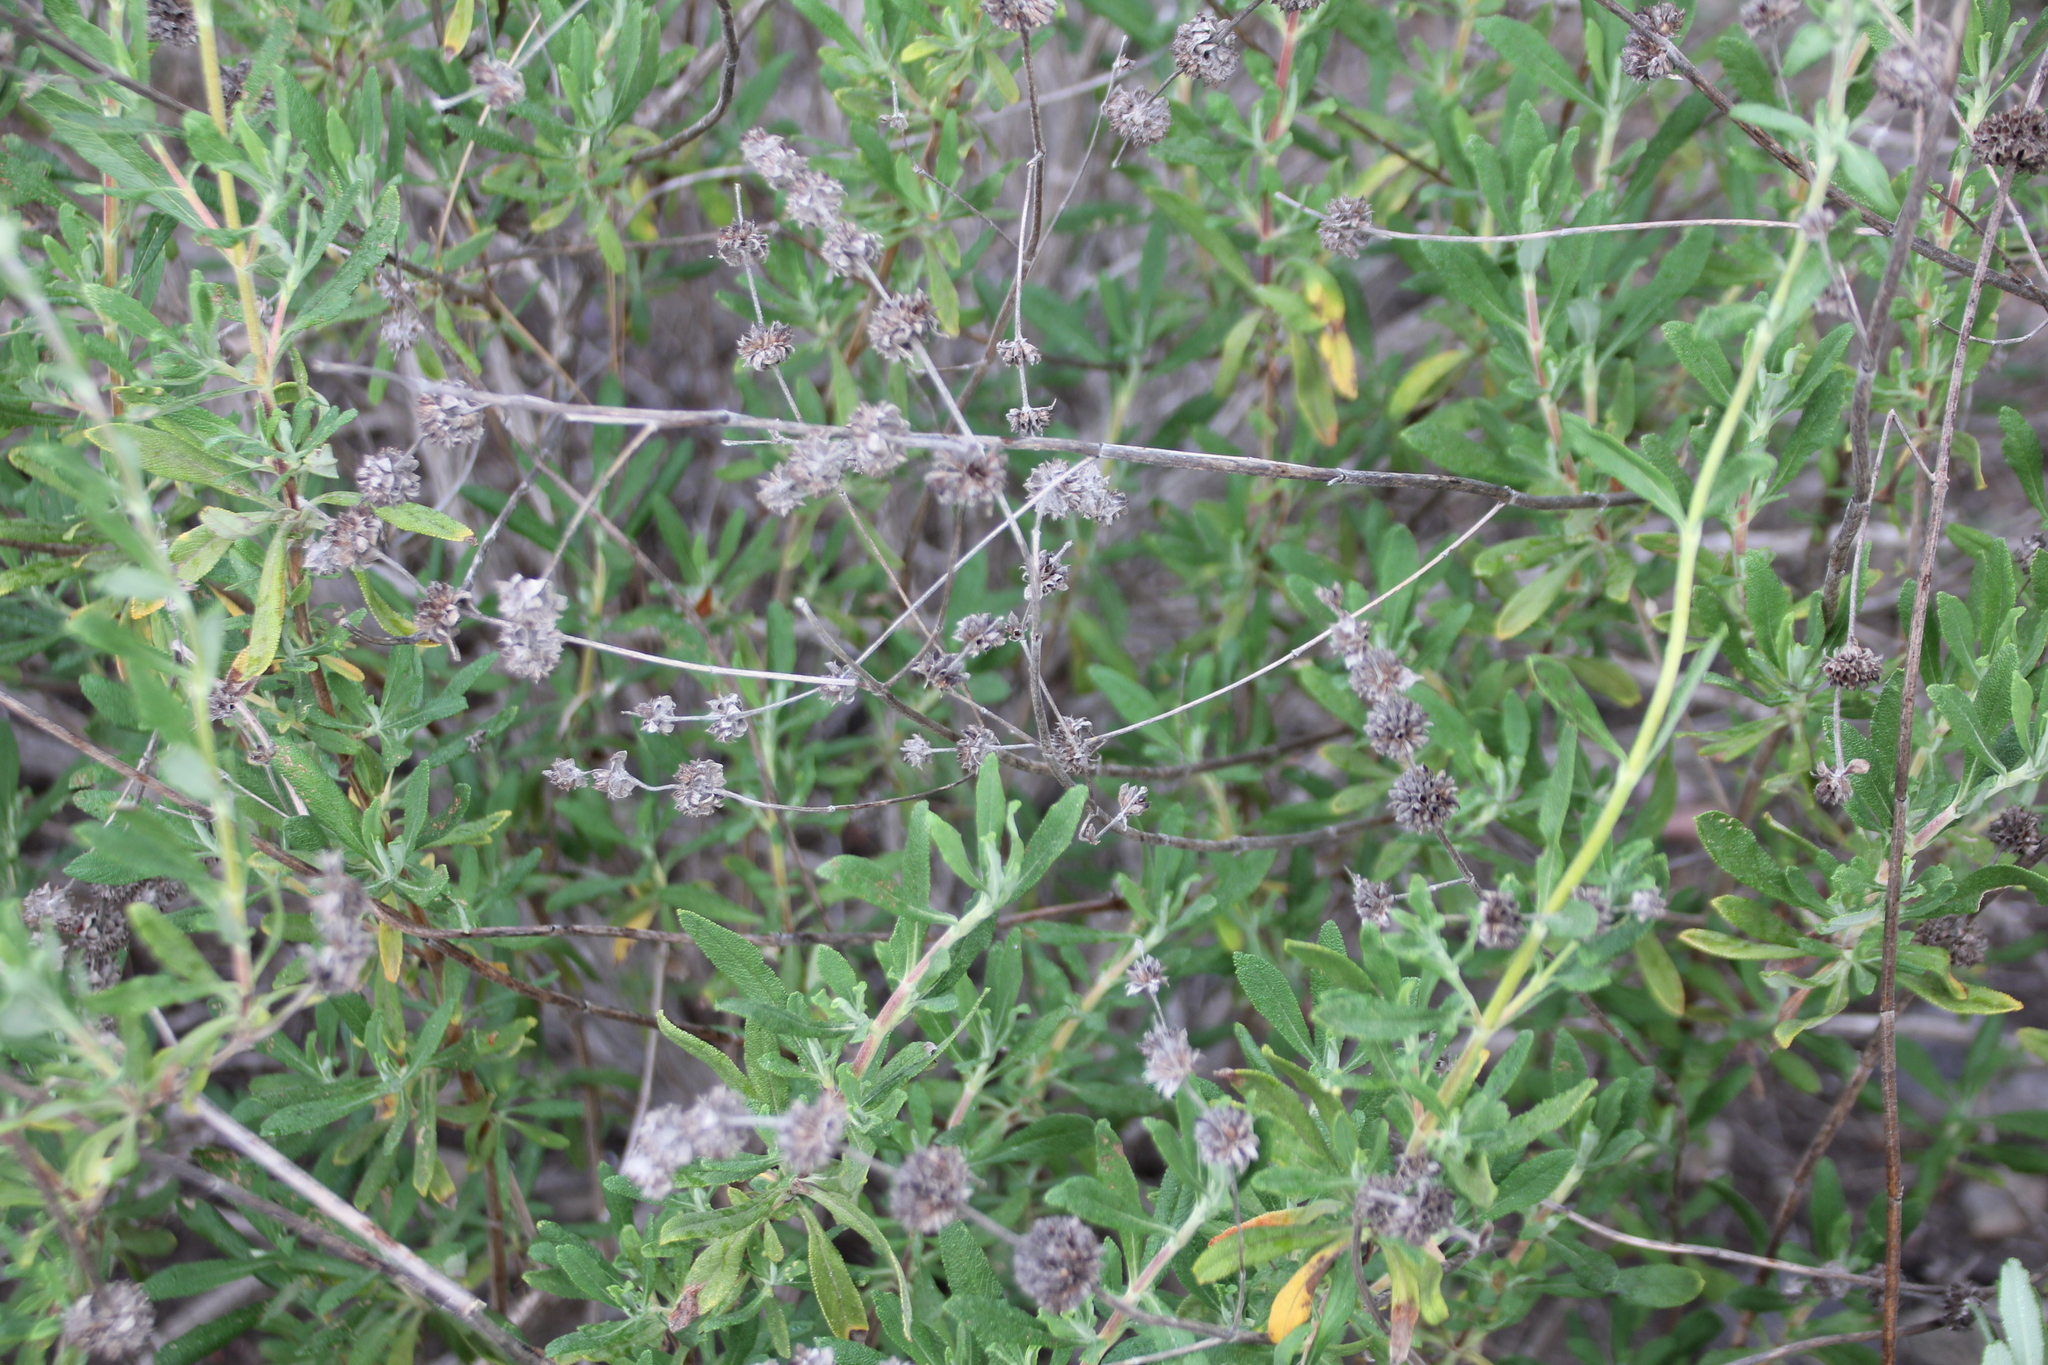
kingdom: Plantae
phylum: Tracheophyta
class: Magnoliopsida
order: Lamiales
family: Lamiaceae
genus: Salvia
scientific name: Salvia mellifera
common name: Black sage
